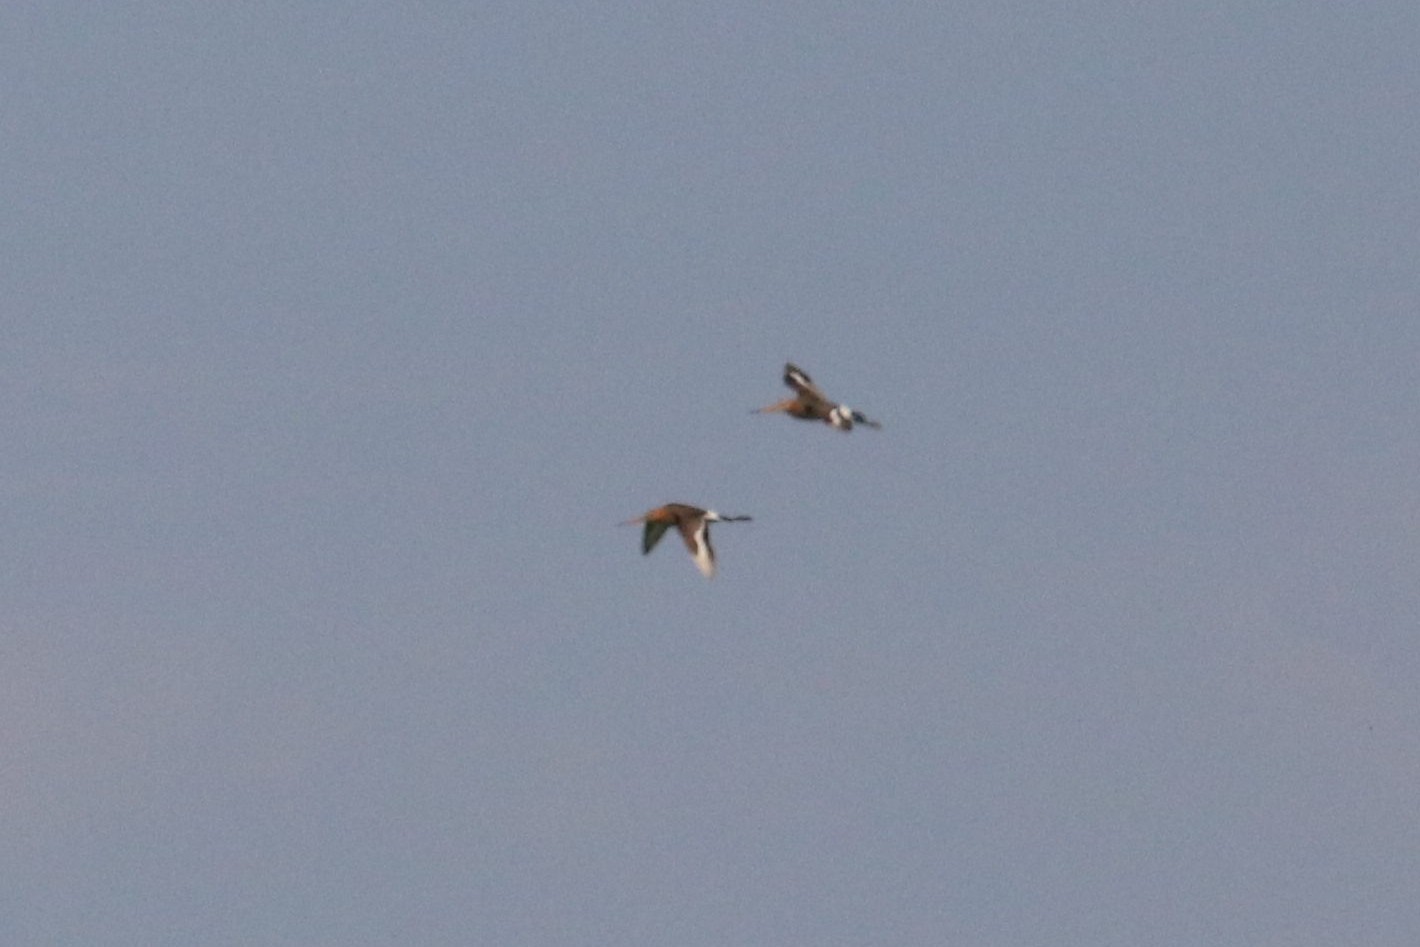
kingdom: Animalia
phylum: Chordata
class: Aves
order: Charadriiformes
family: Scolopacidae
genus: Limosa
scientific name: Limosa limosa
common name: Black-tailed godwit
